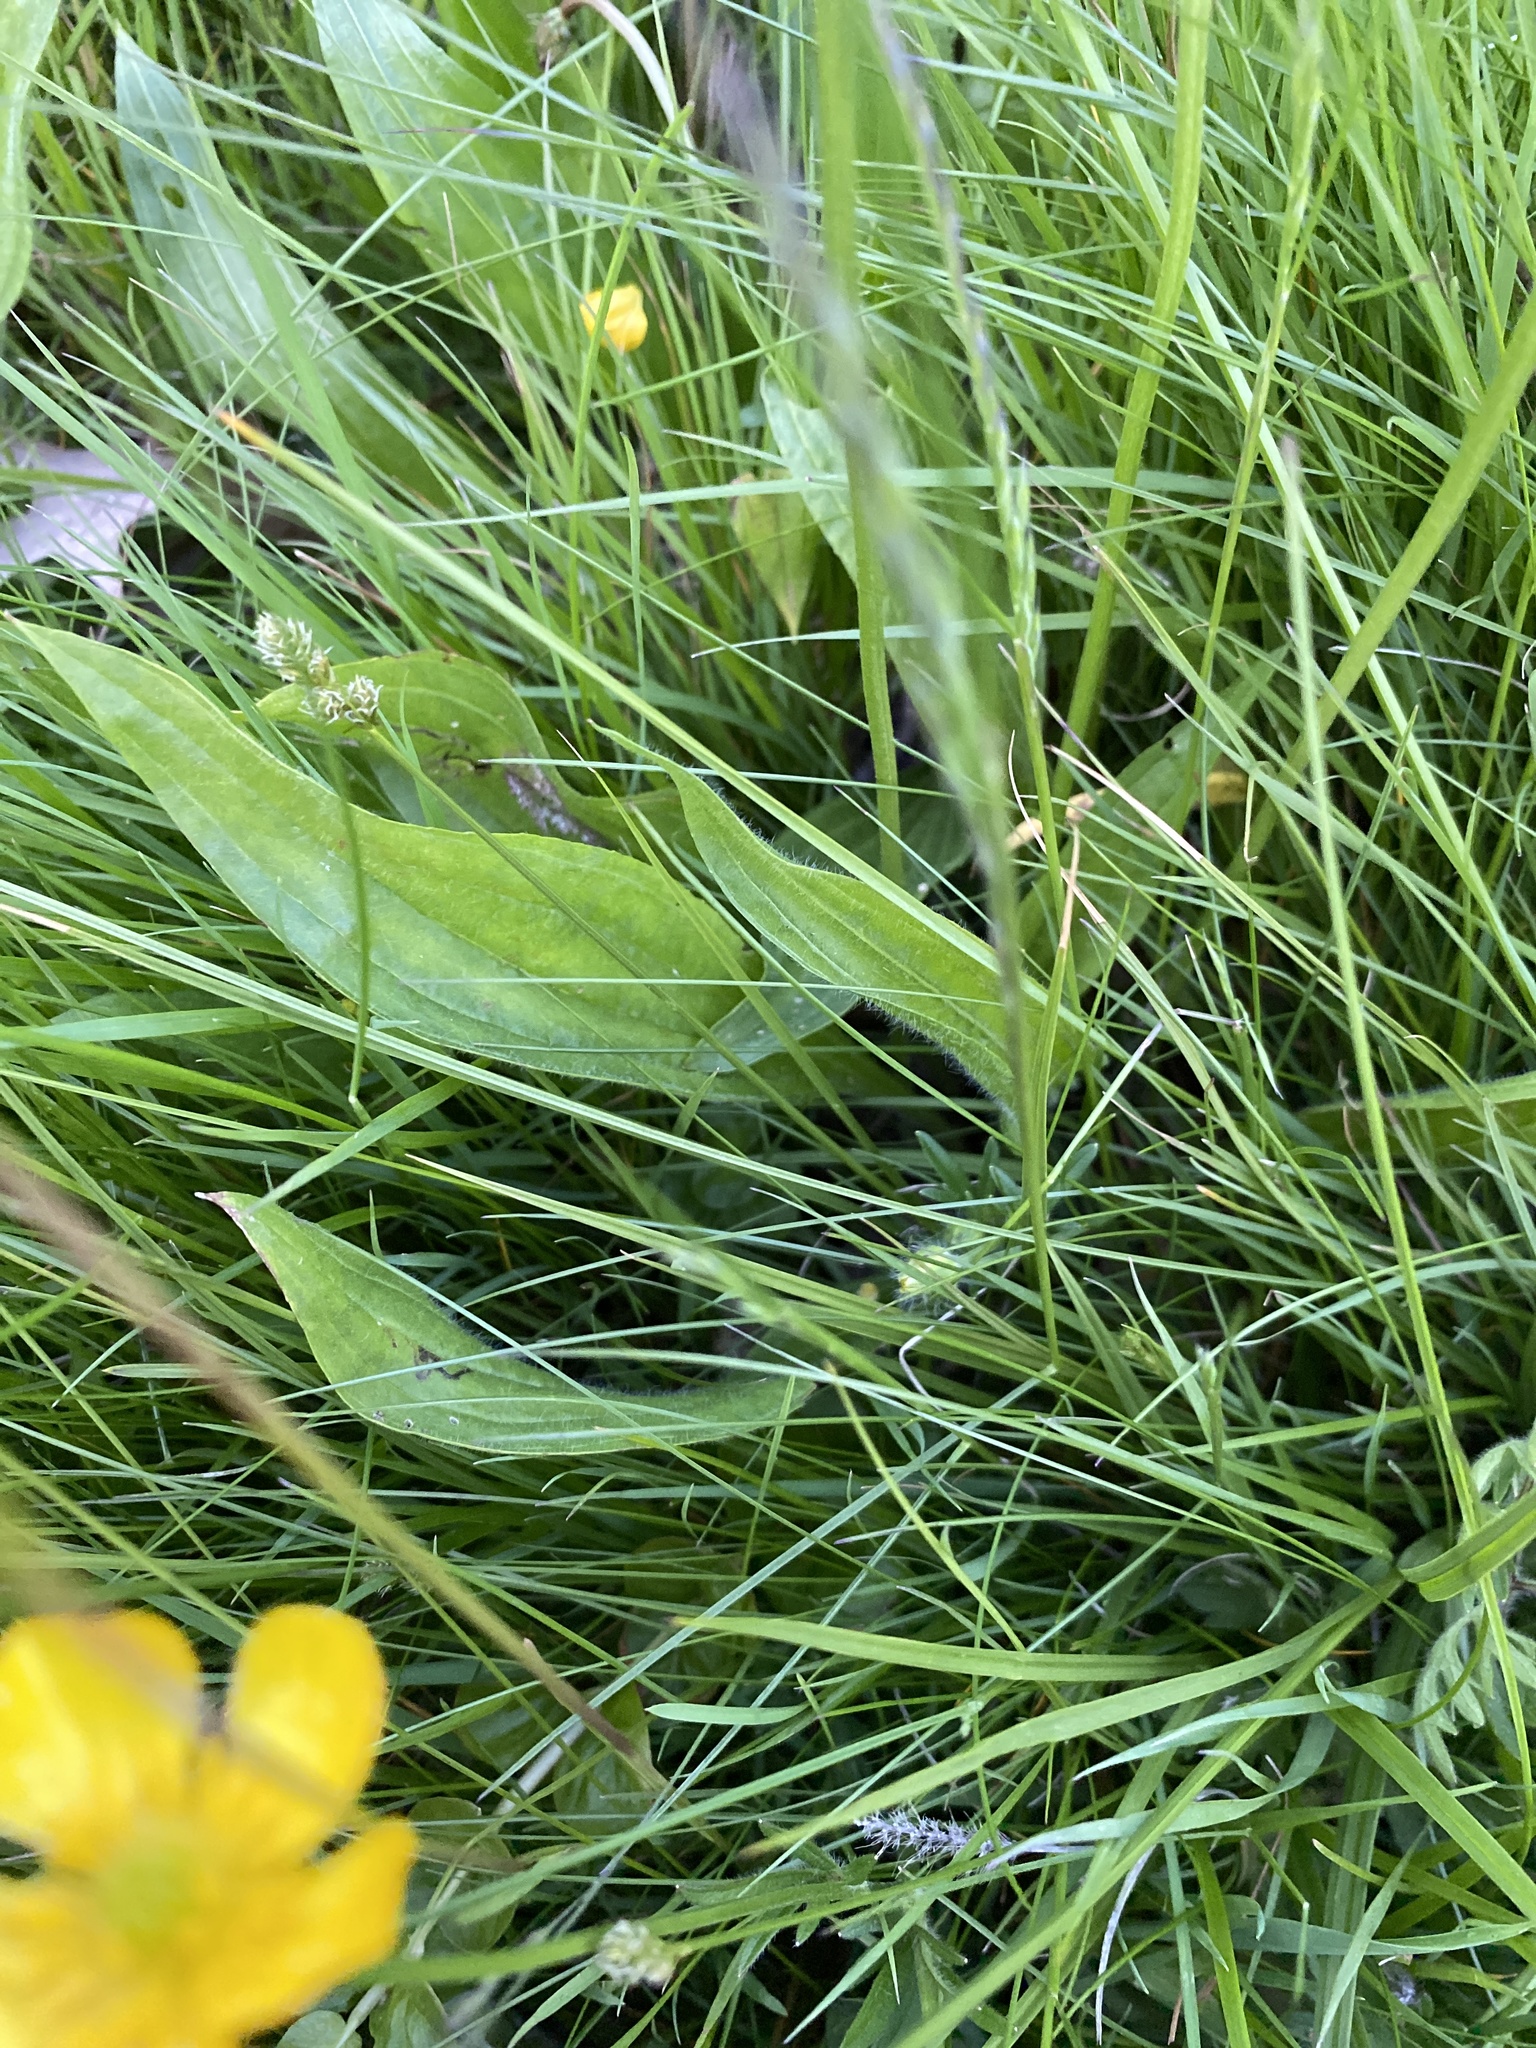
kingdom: Plantae
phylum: Tracheophyta
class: Magnoliopsida
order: Lamiales
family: Plantaginaceae
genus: Plantago
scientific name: Plantago lanceolata
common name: Ribwort plantain
